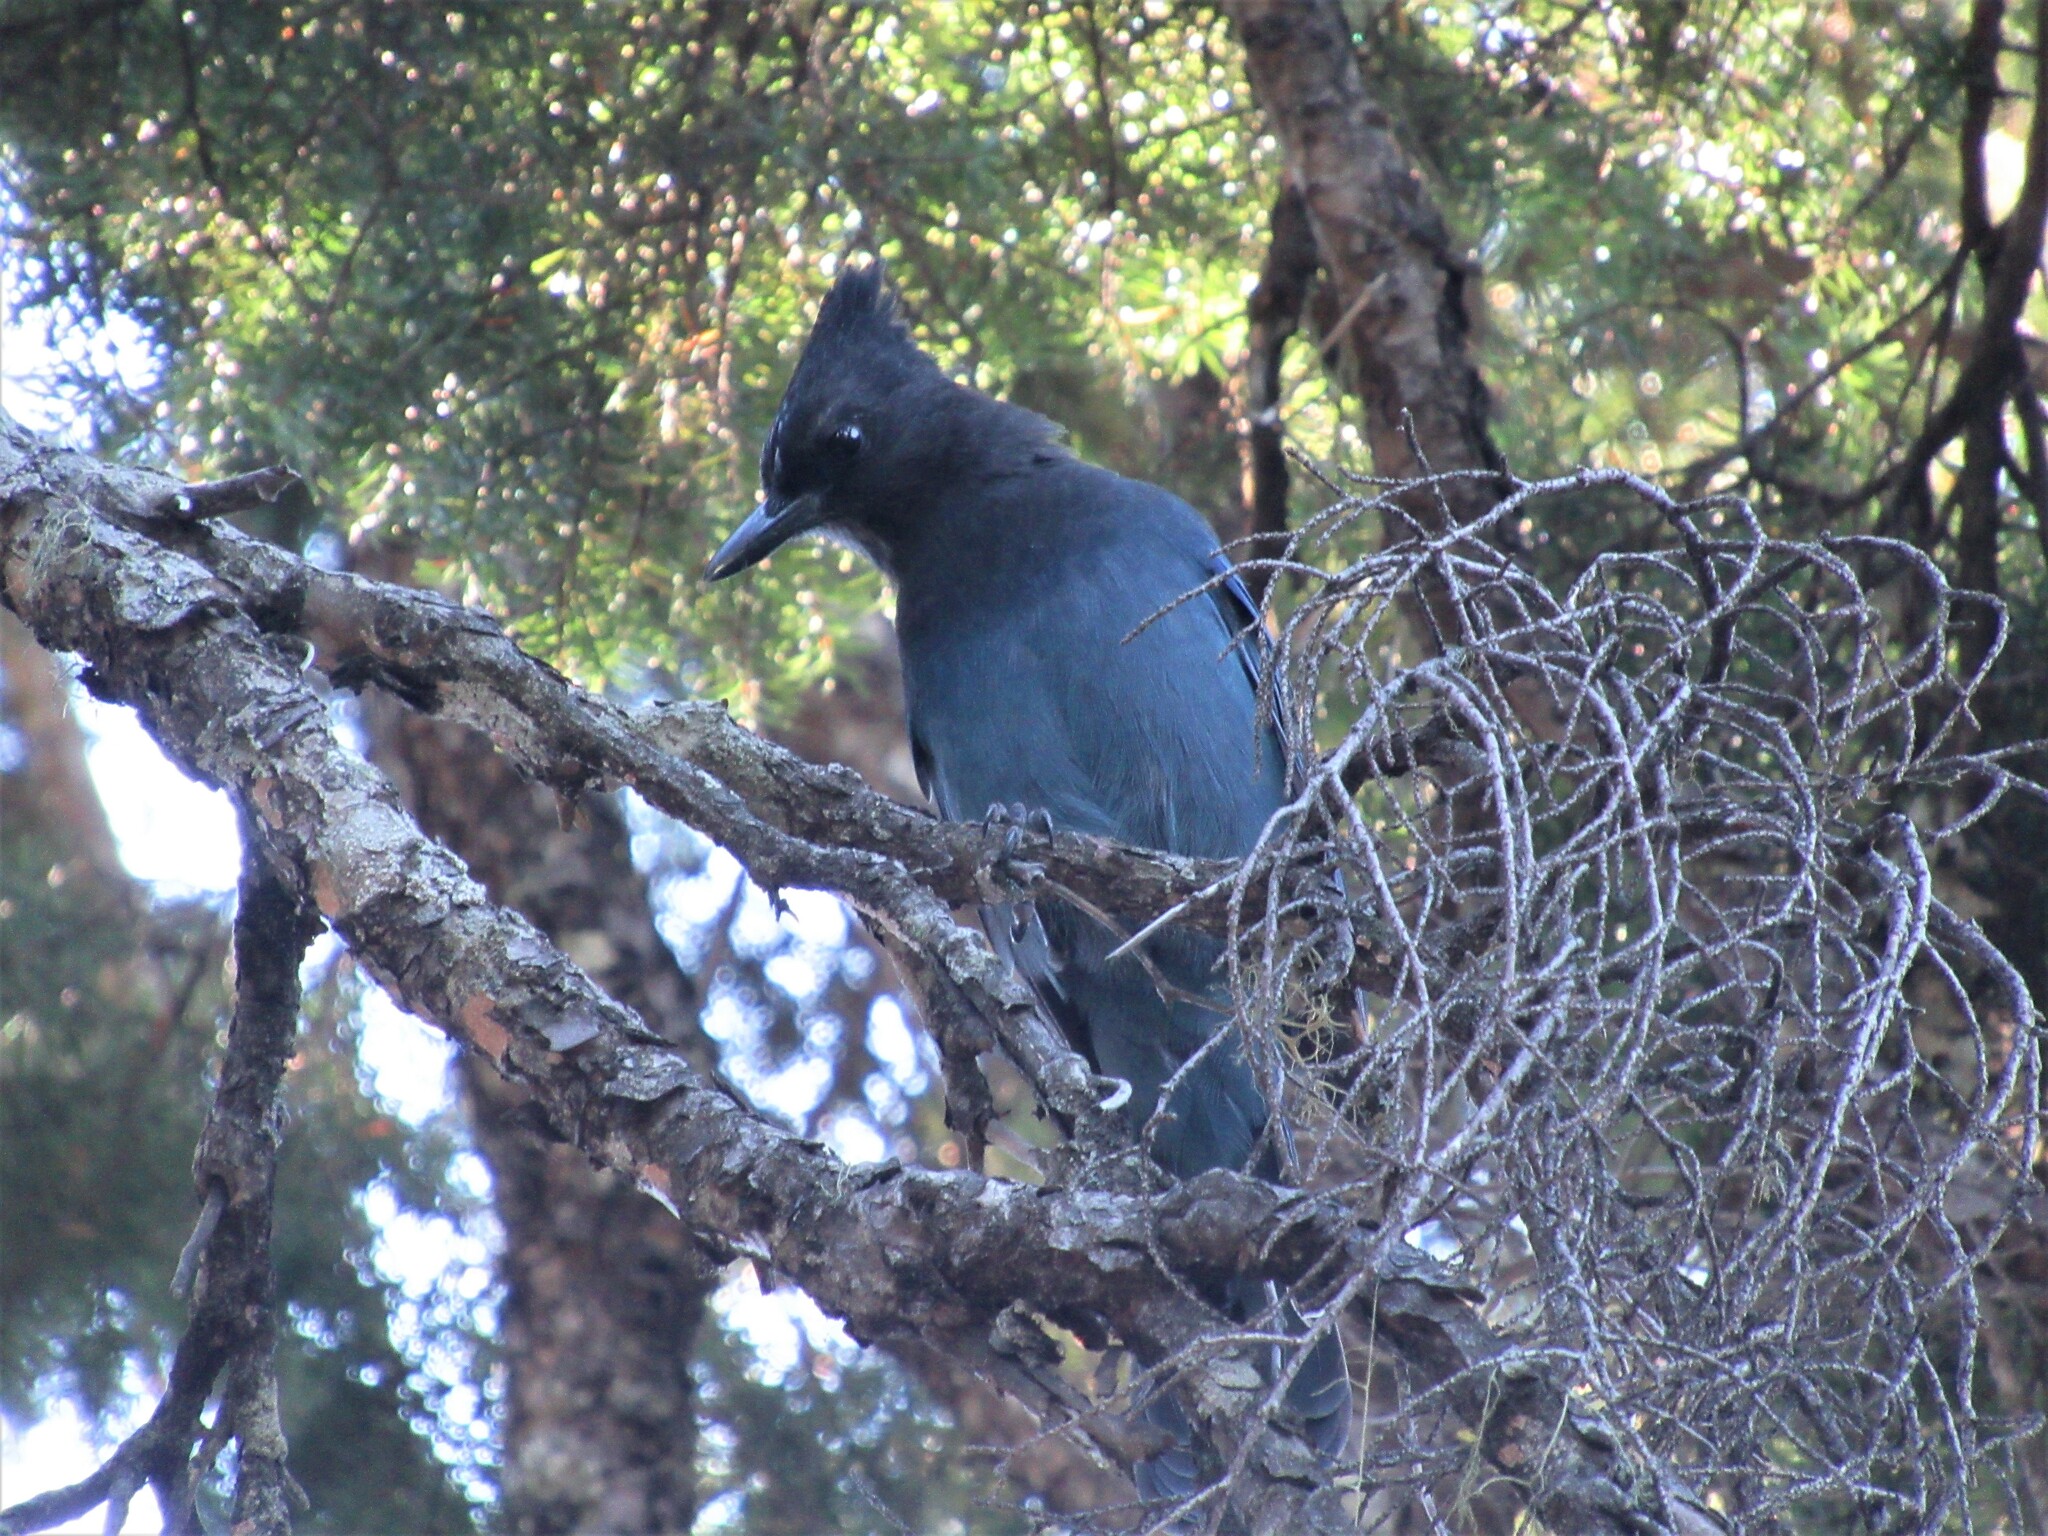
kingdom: Animalia
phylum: Chordata
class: Aves
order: Passeriformes
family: Corvidae
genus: Cyanocitta
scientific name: Cyanocitta stelleri
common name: Steller's jay
